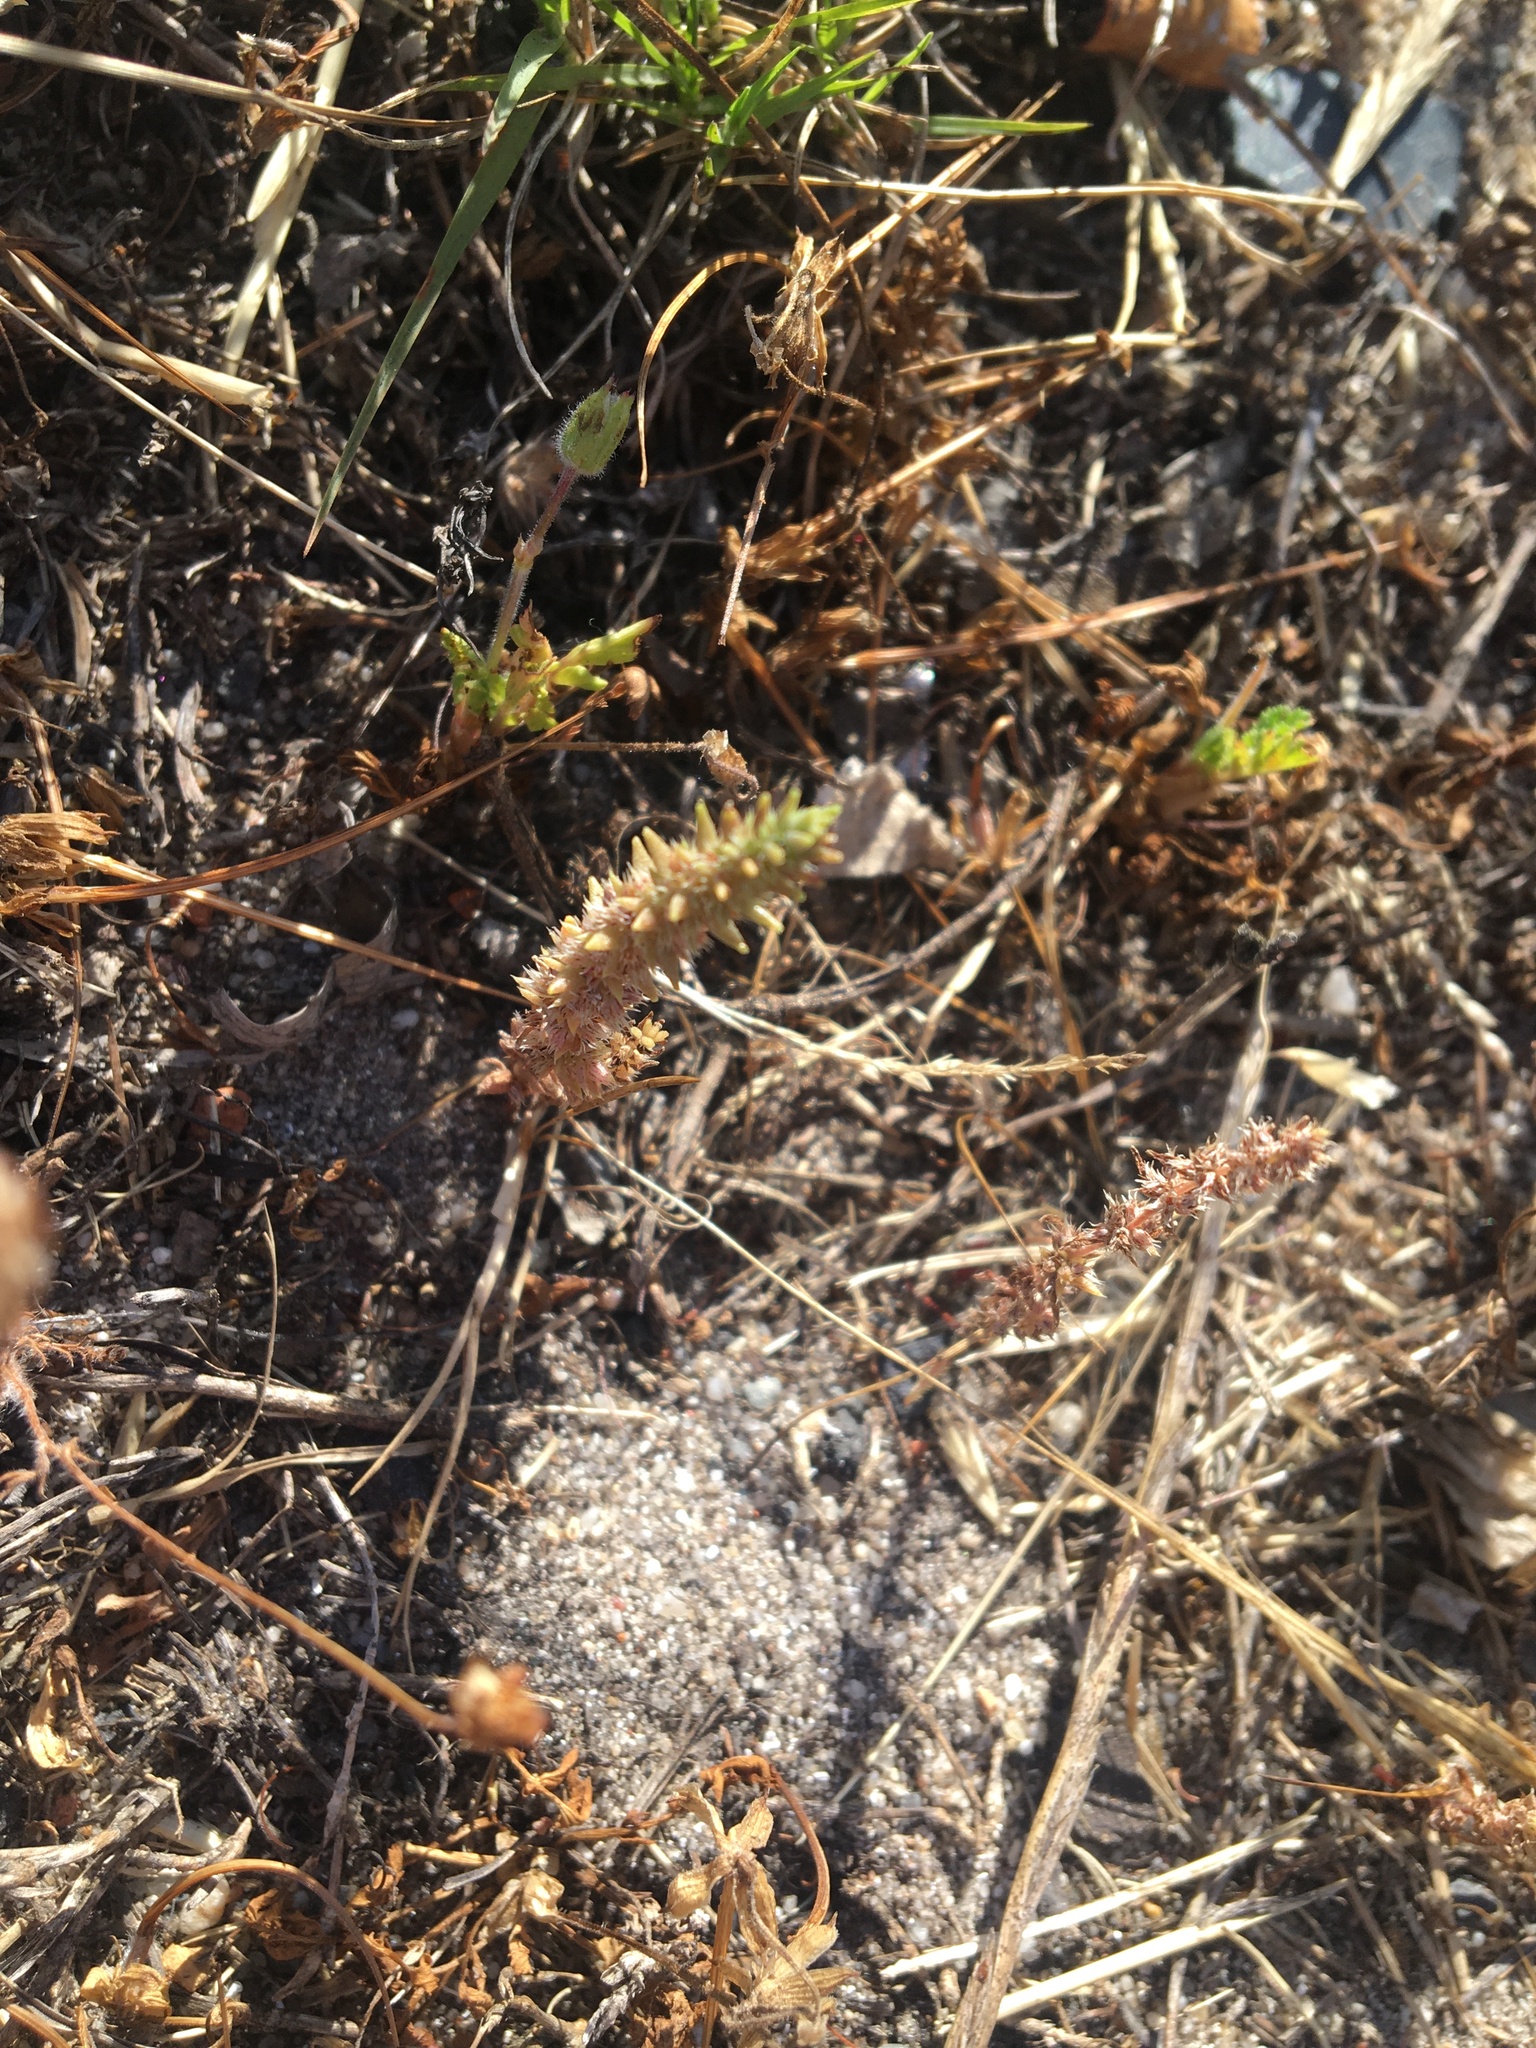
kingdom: Plantae
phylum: Tracheophyta
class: Magnoliopsida
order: Saxifragales
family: Crassulaceae
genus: Crassula
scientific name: Crassula campestris
